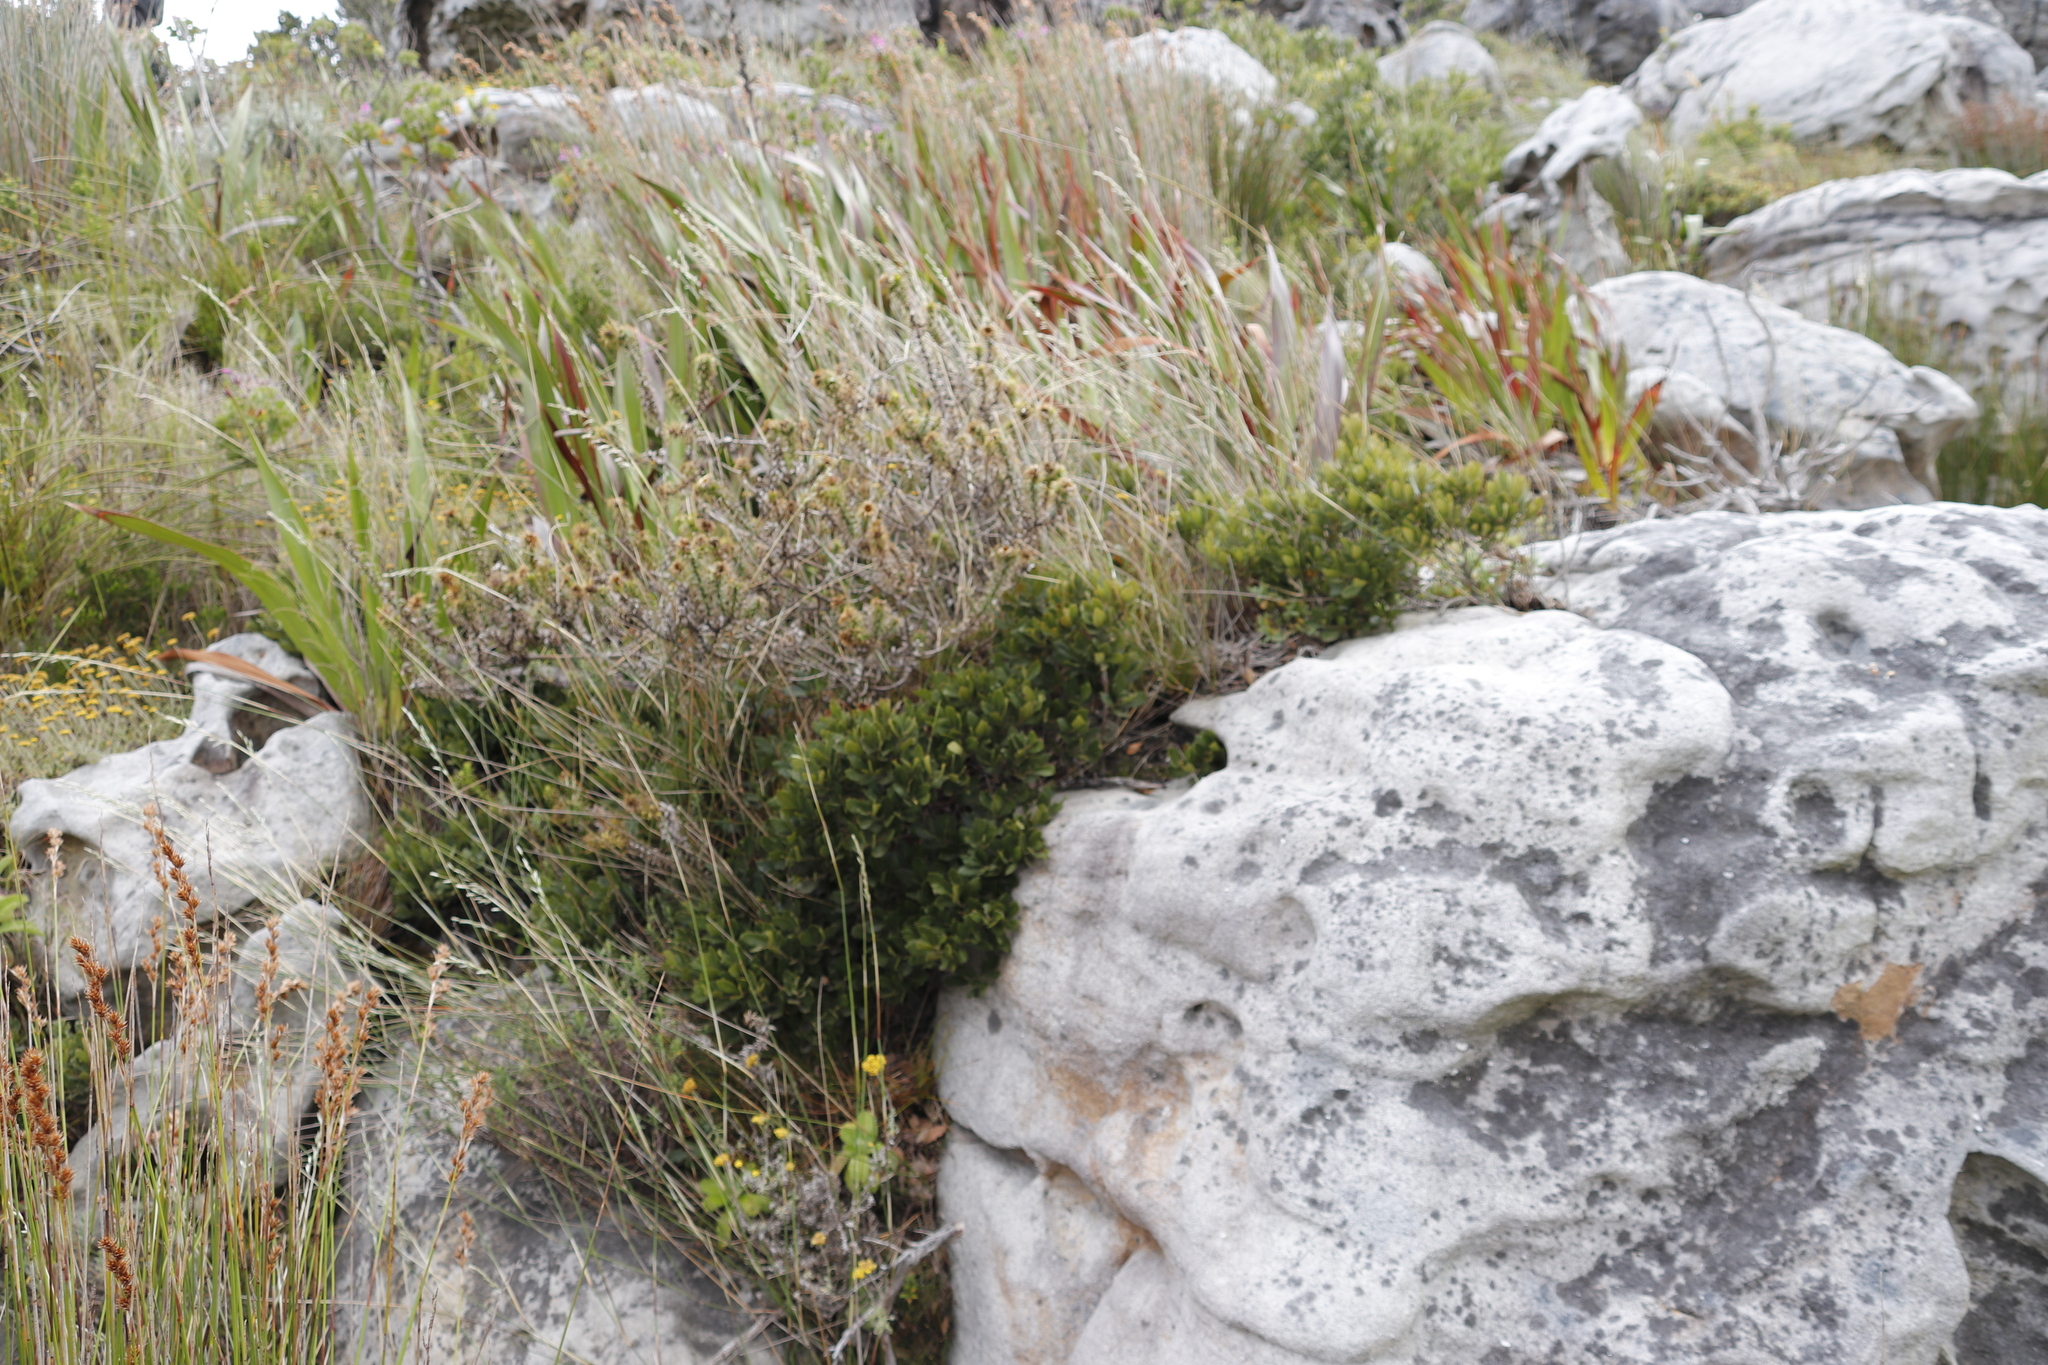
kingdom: Plantae
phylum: Tracheophyta
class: Magnoliopsida
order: Fagales
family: Myricaceae
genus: Morella
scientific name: Morella diversifolia
